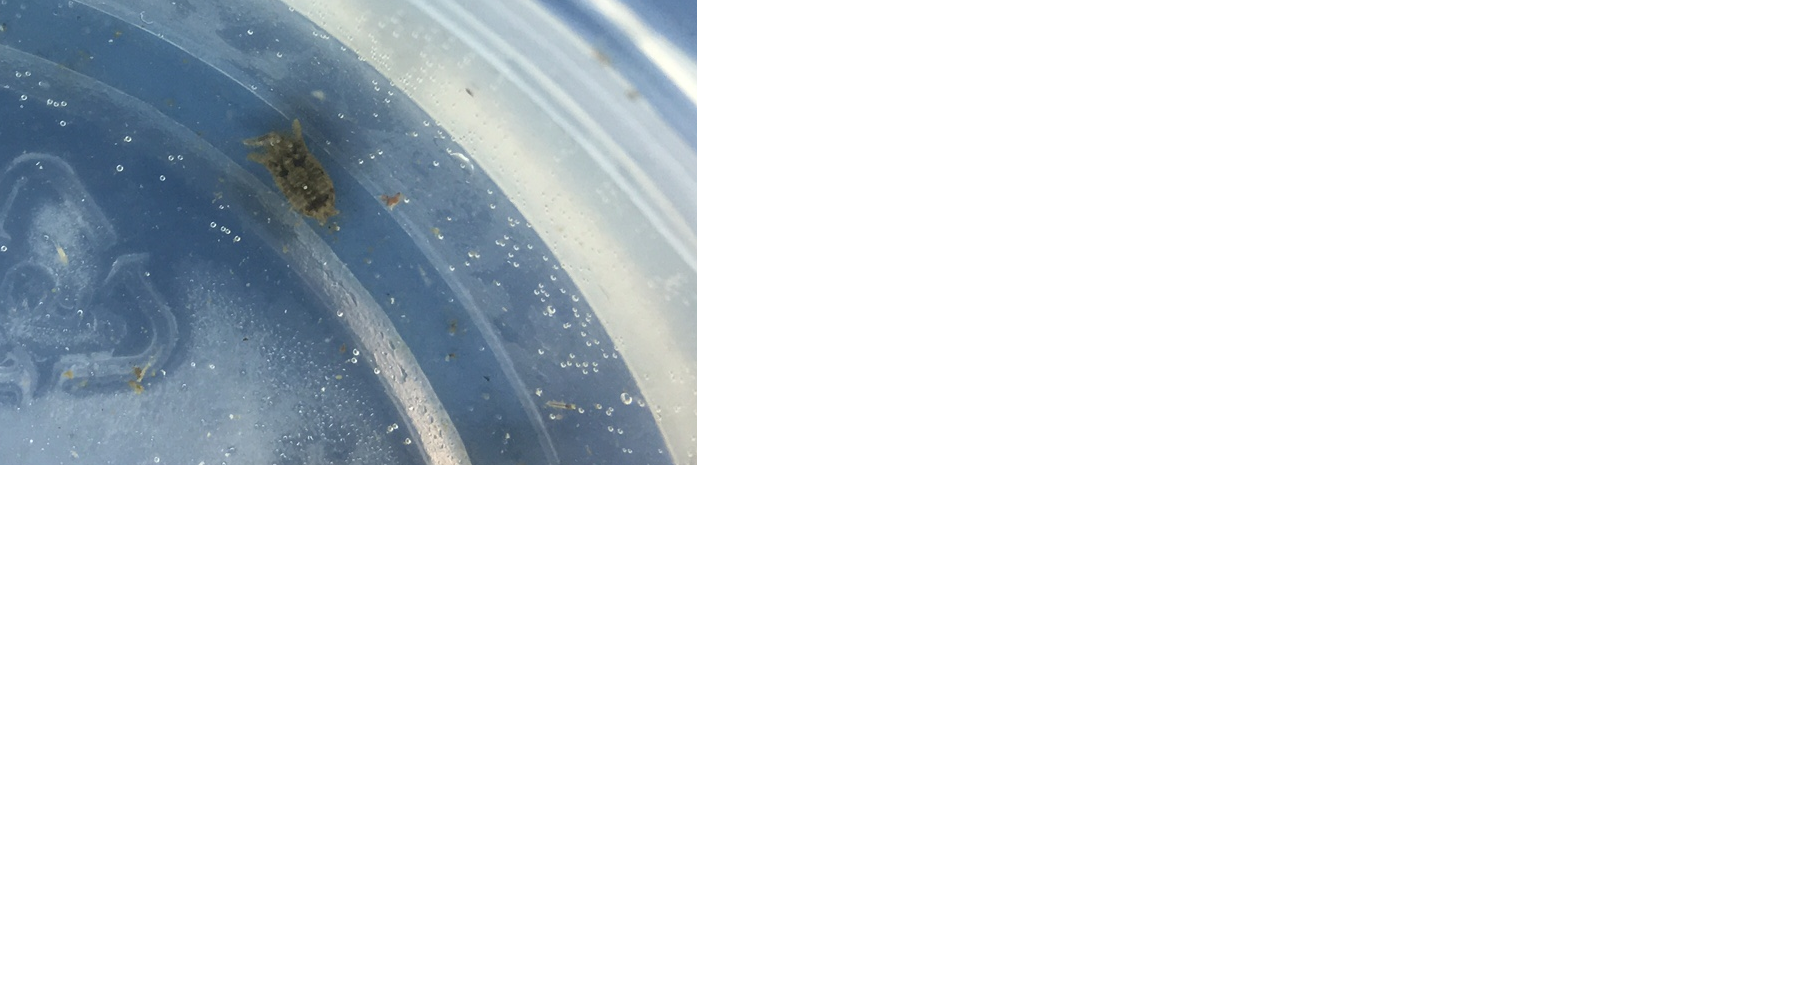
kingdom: Animalia
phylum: Arthropoda
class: Malacostraca
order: Isopoda
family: Sphaeromatidae
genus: Paracerceis
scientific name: Paracerceis sculpta
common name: Marine isopod
